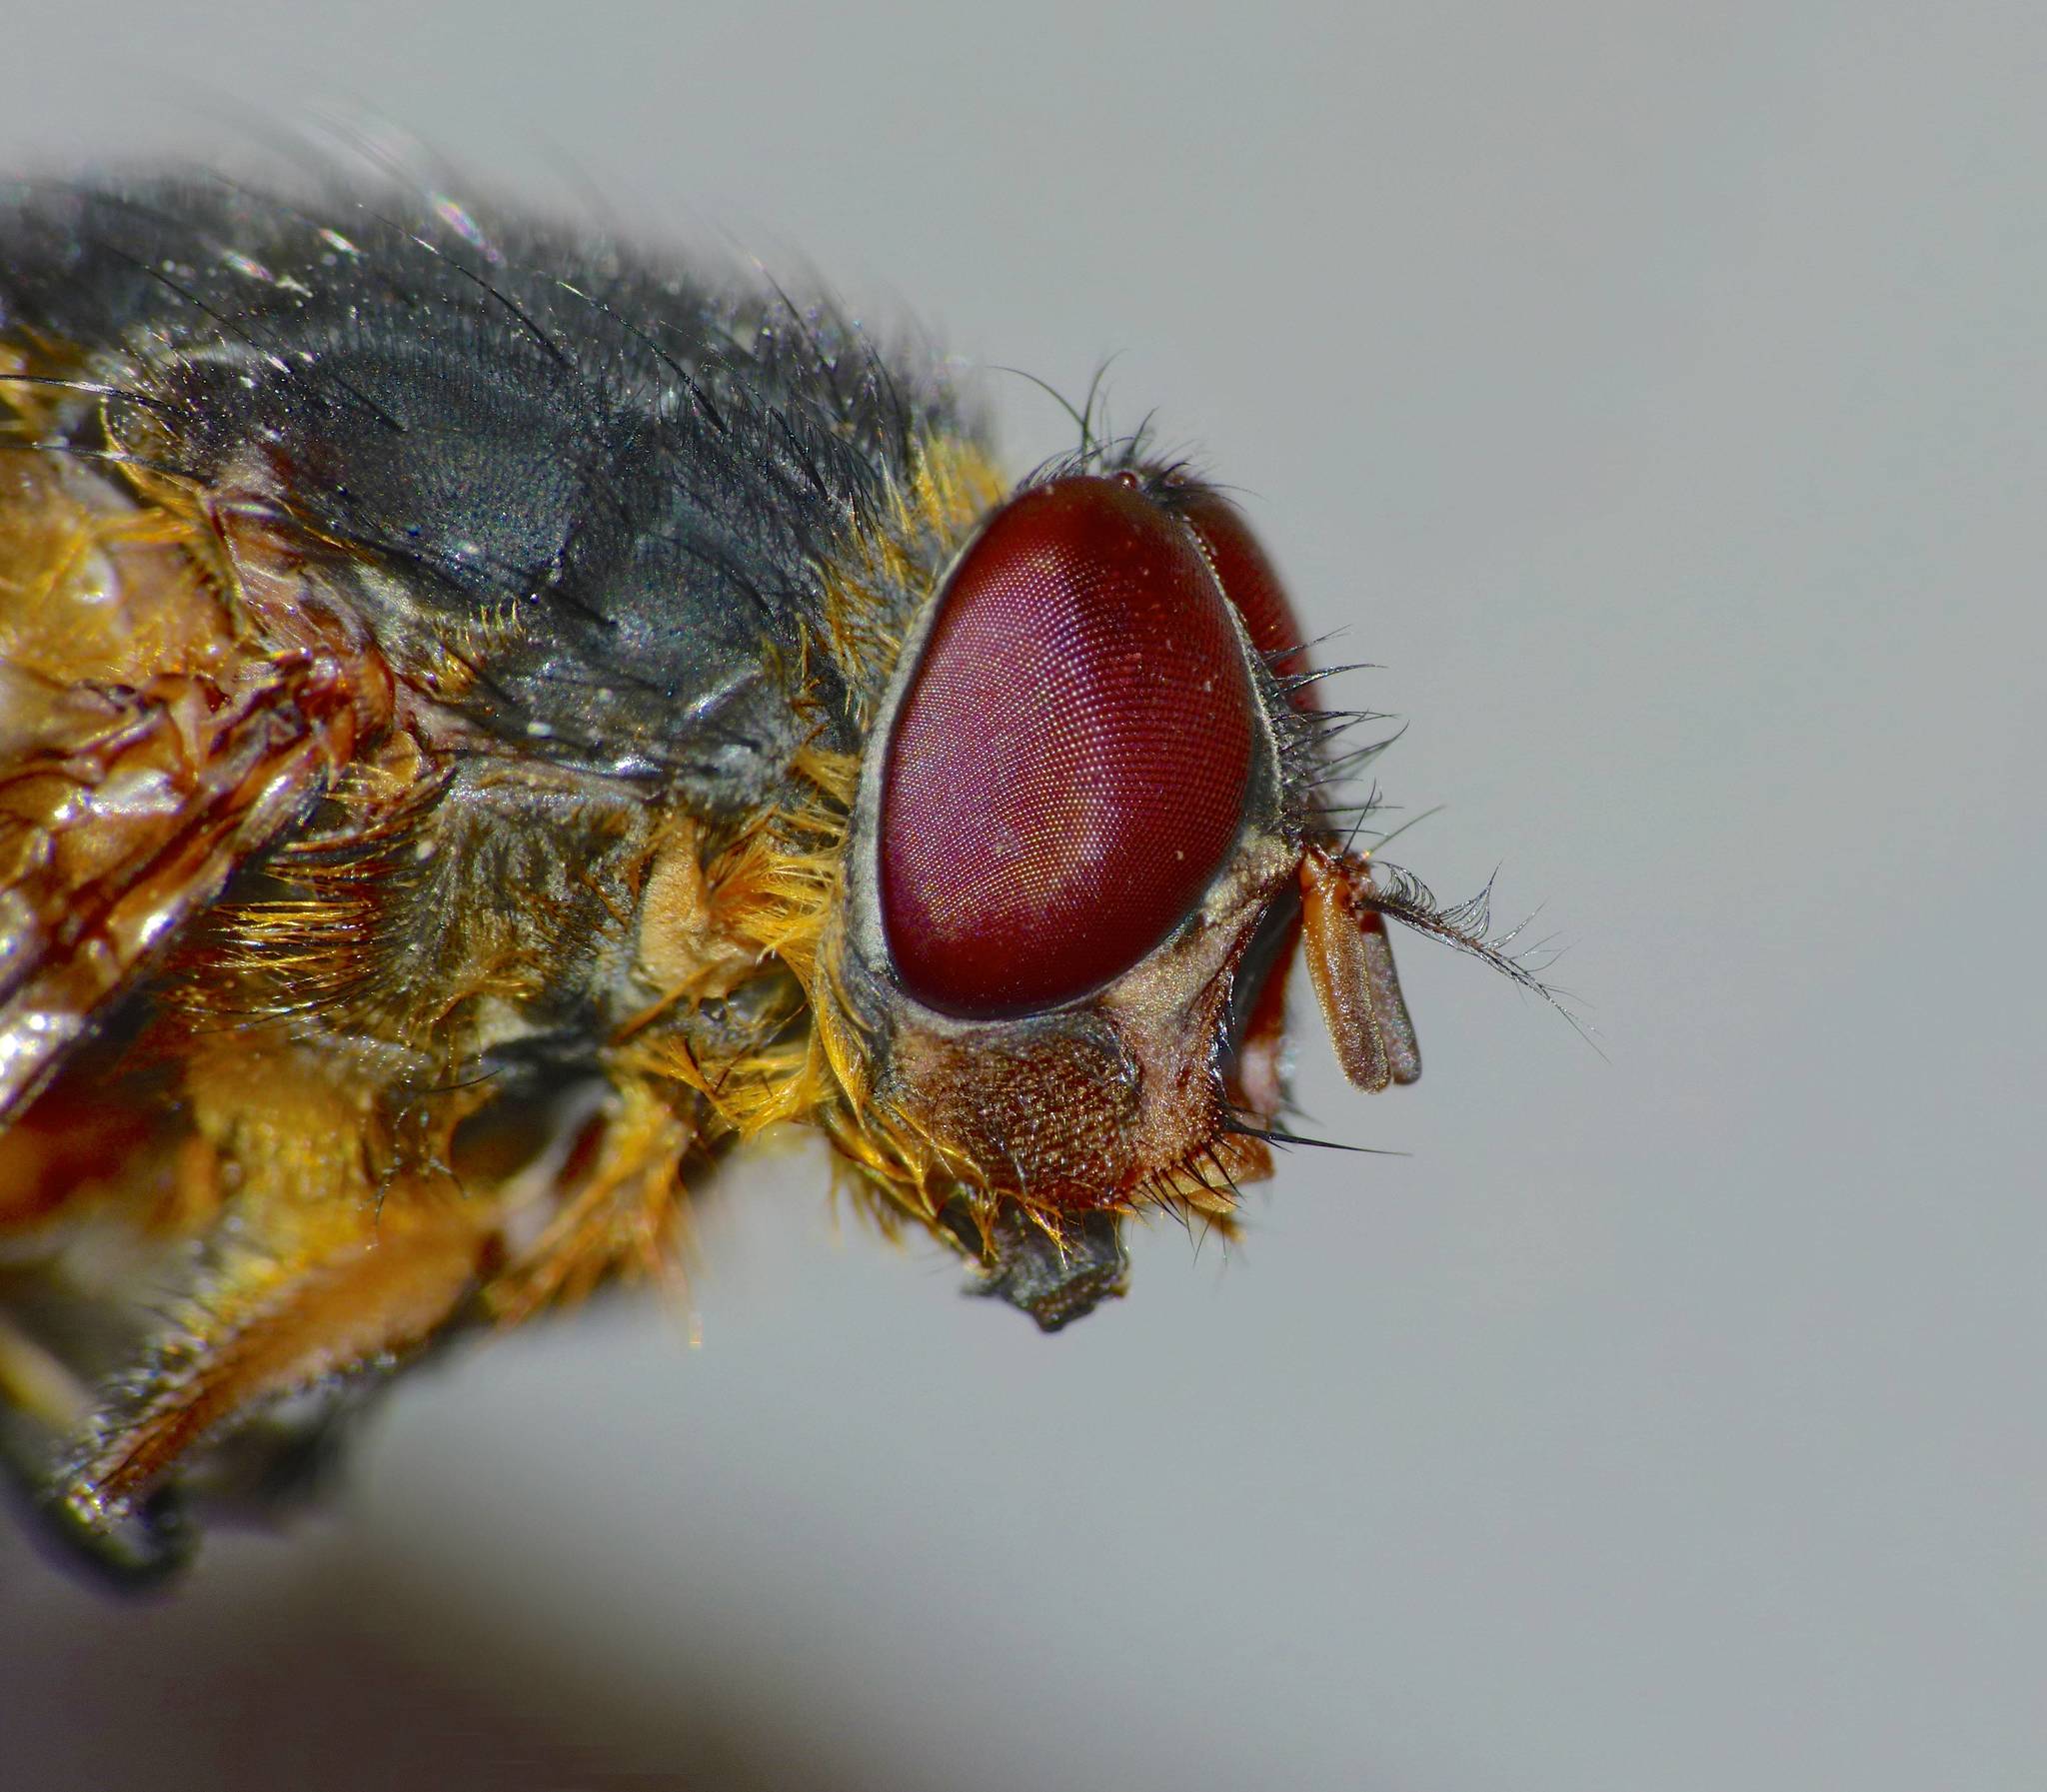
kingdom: Animalia
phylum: Arthropoda
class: Insecta
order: Diptera
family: Calliphoridae
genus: Calliphora
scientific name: Calliphora stygia
